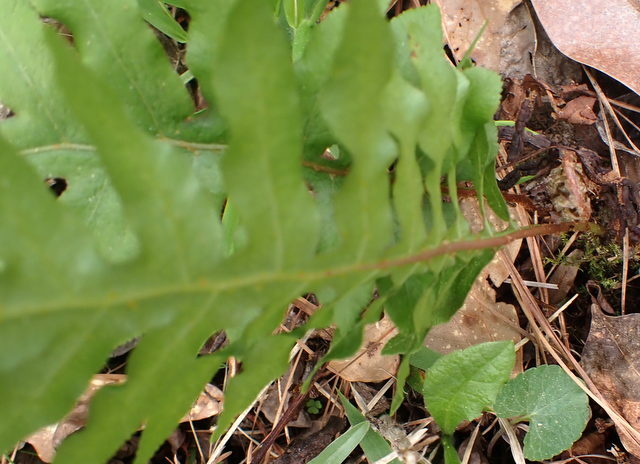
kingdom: Plantae
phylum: Tracheophyta
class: Polypodiopsida
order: Polypodiales
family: Blechnaceae
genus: Lorinseria
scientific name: Lorinseria areolata
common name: Dwarf chain fern
